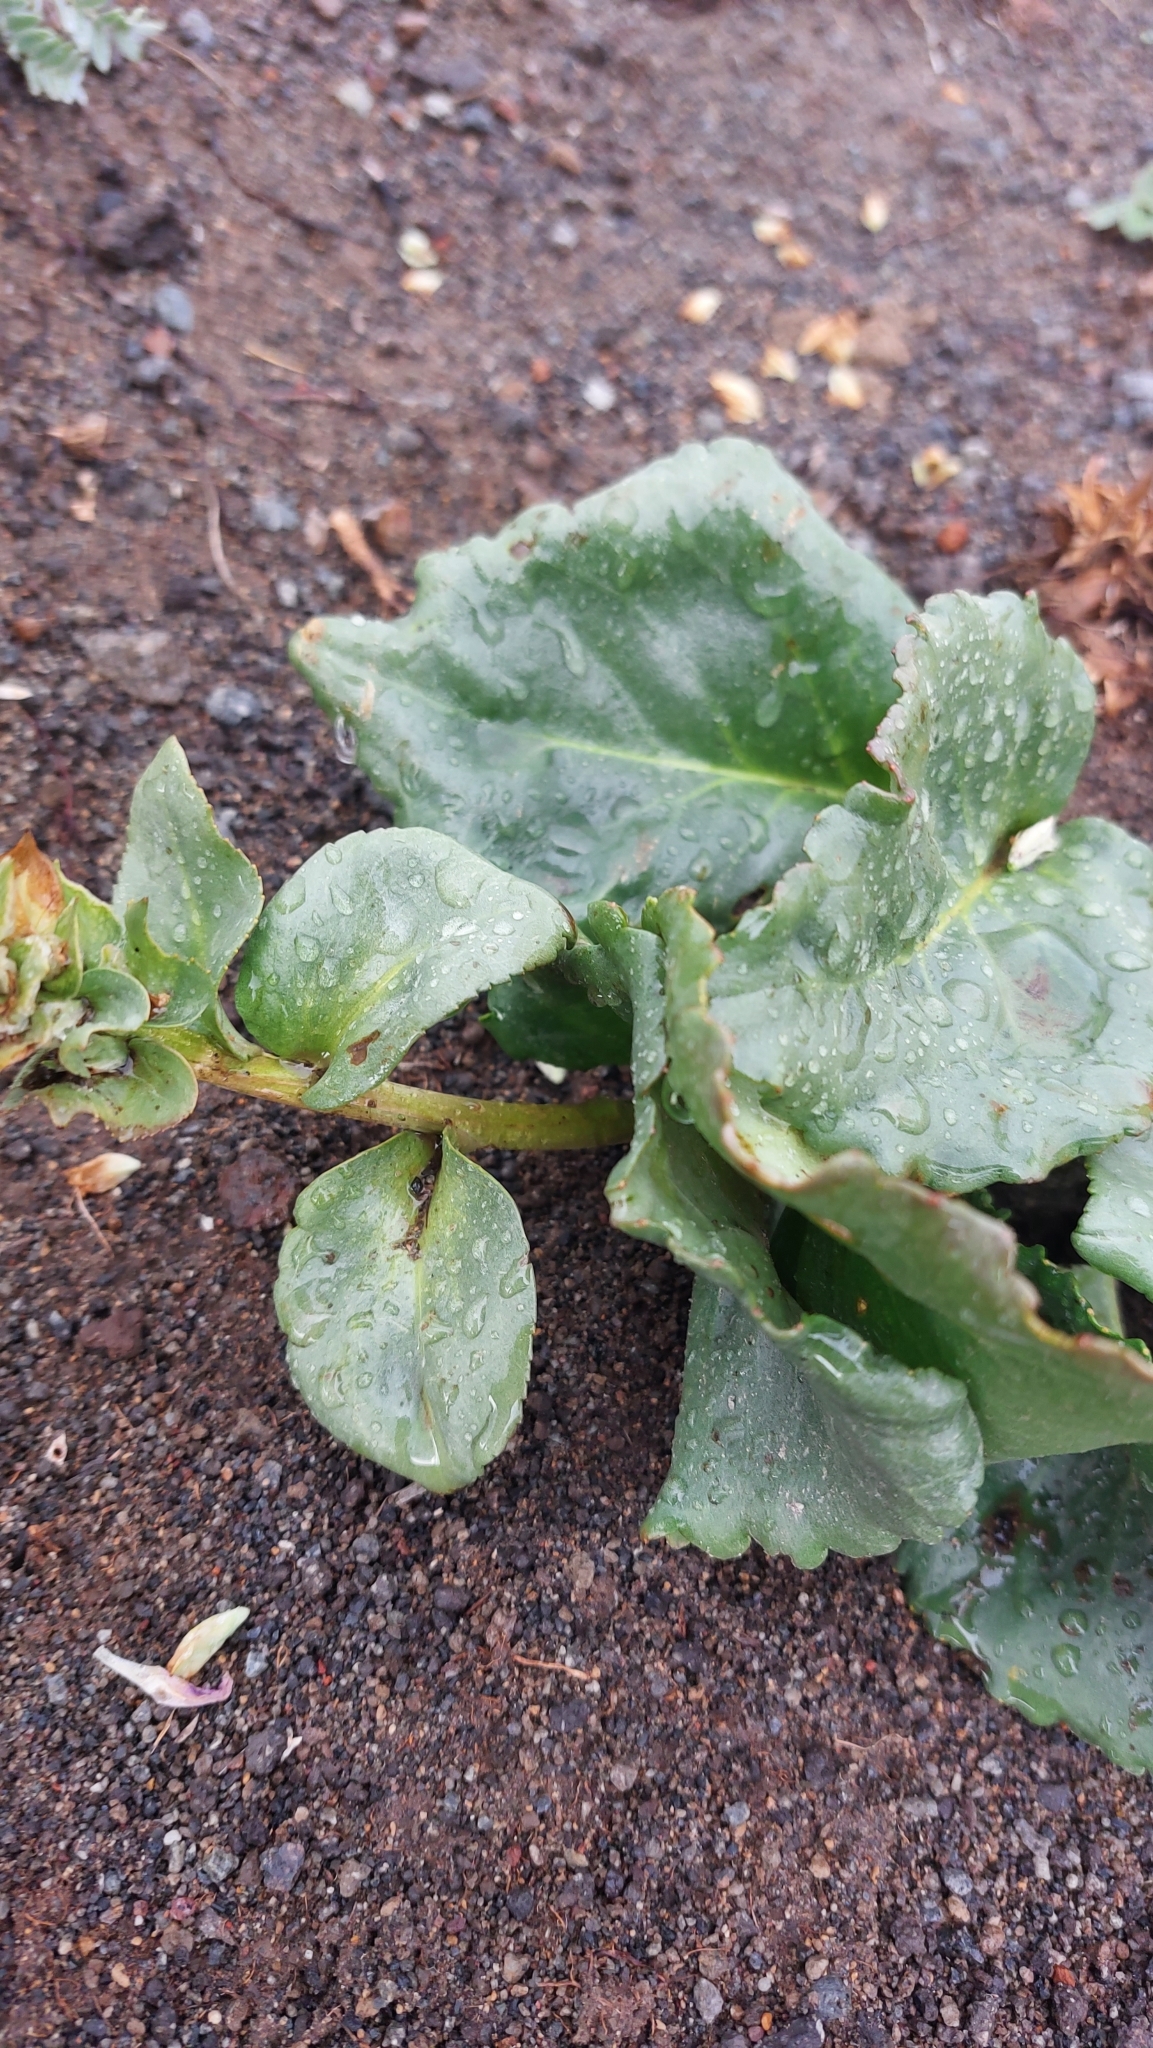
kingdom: Plantae
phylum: Tracheophyta
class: Magnoliopsida
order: Lamiales
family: Plantaginaceae
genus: Lagotis
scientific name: Lagotis glauca
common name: Glaucous weaselsnout
